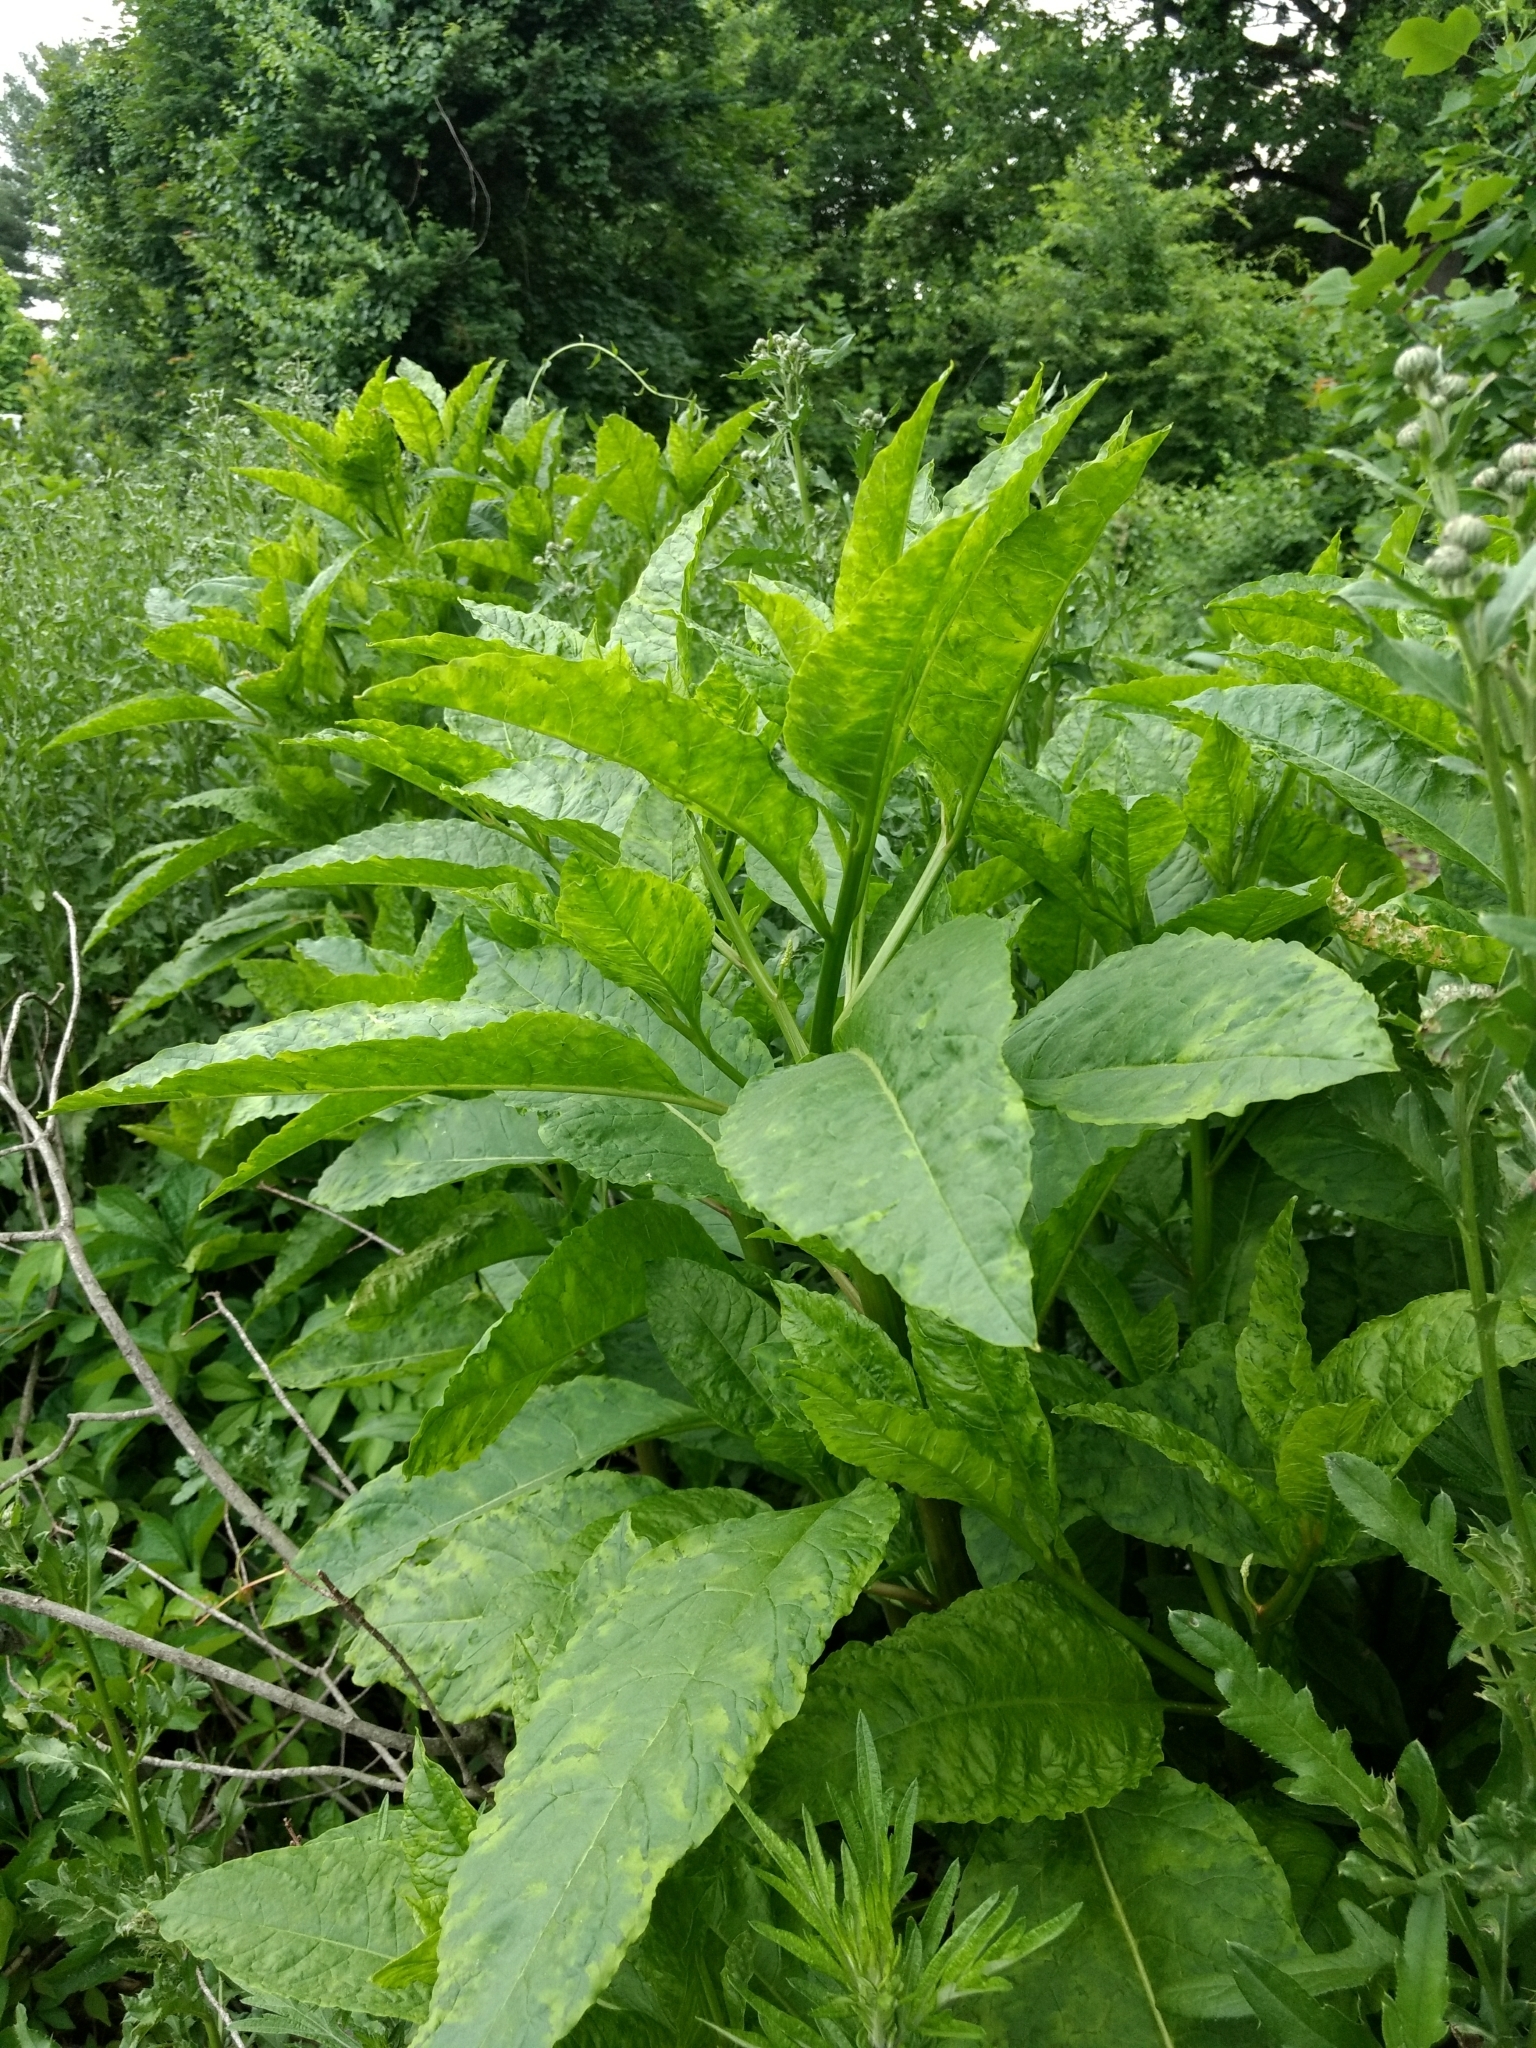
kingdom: Viruses
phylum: Pisuviricota
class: Stelpaviricetes
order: Patatavirales
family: Potyviridae
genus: Potyvirus
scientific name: Potyvirus Pokeweed mosaic virus
